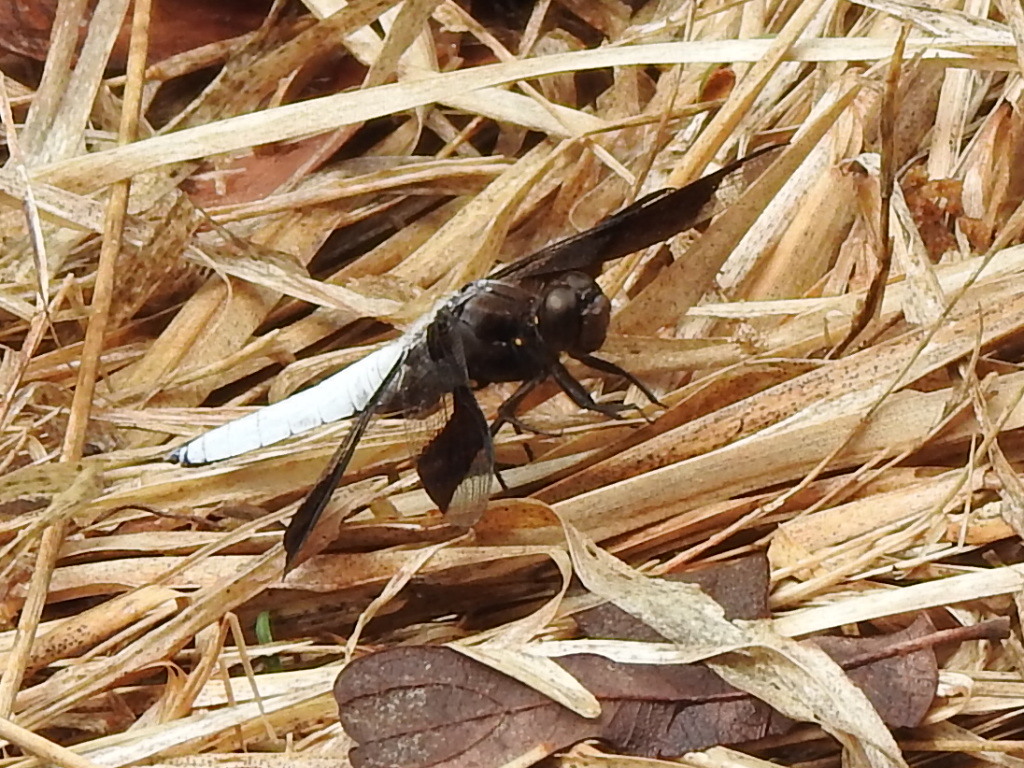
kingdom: Animalia
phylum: Arthropoda
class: Insecta
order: Odonata
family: Libellulidae
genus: Plathemis
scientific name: Plathemis lydia
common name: Common whitetail
